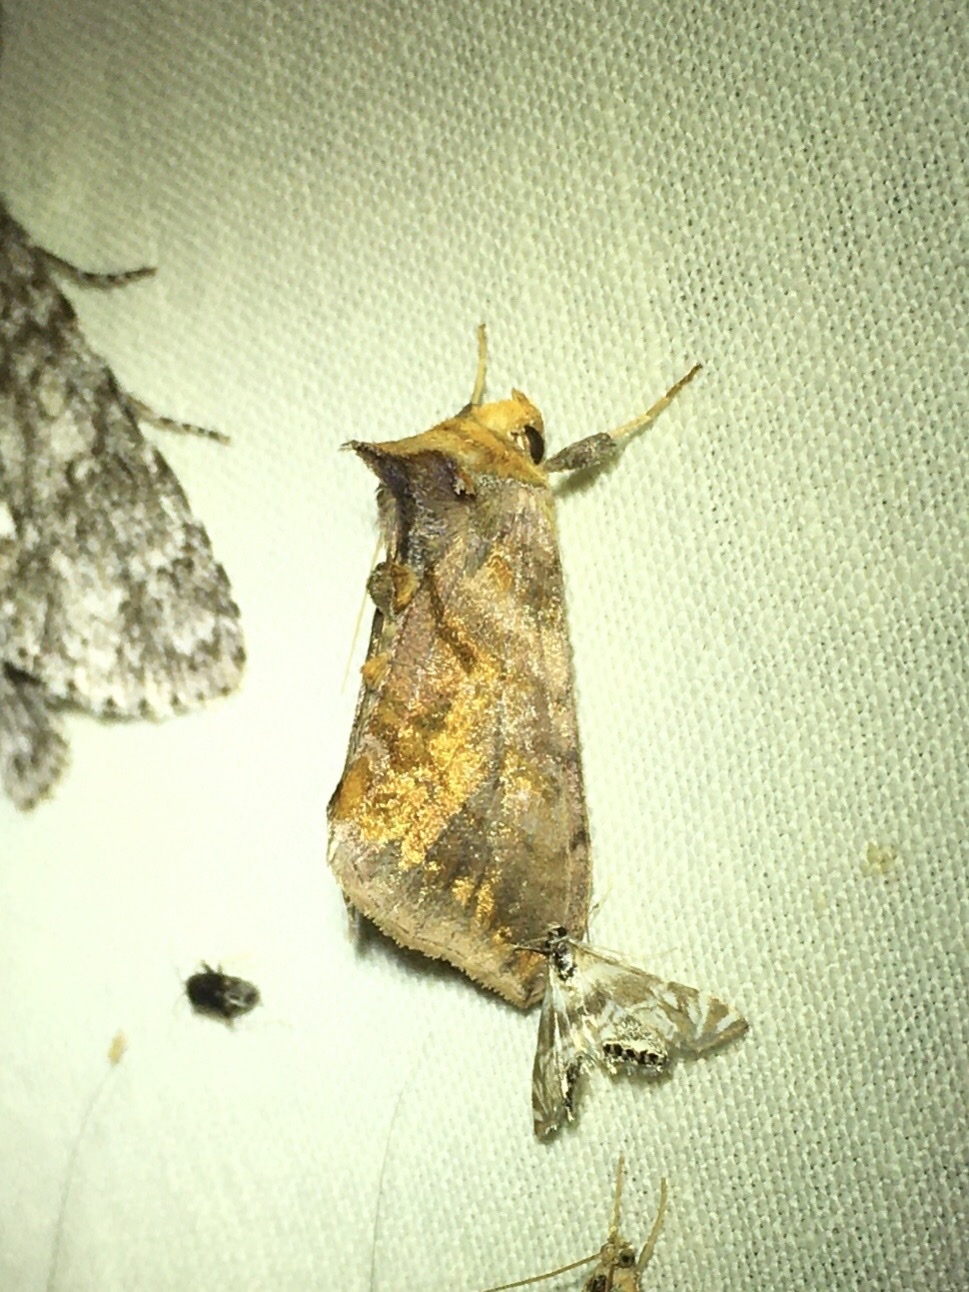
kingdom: Animalia
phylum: Arthropoda
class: Insecta
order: Lepidoptera
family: Noctuidae
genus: Allagrapha
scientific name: Allagrapha aerea
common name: Unspotted looper moth
